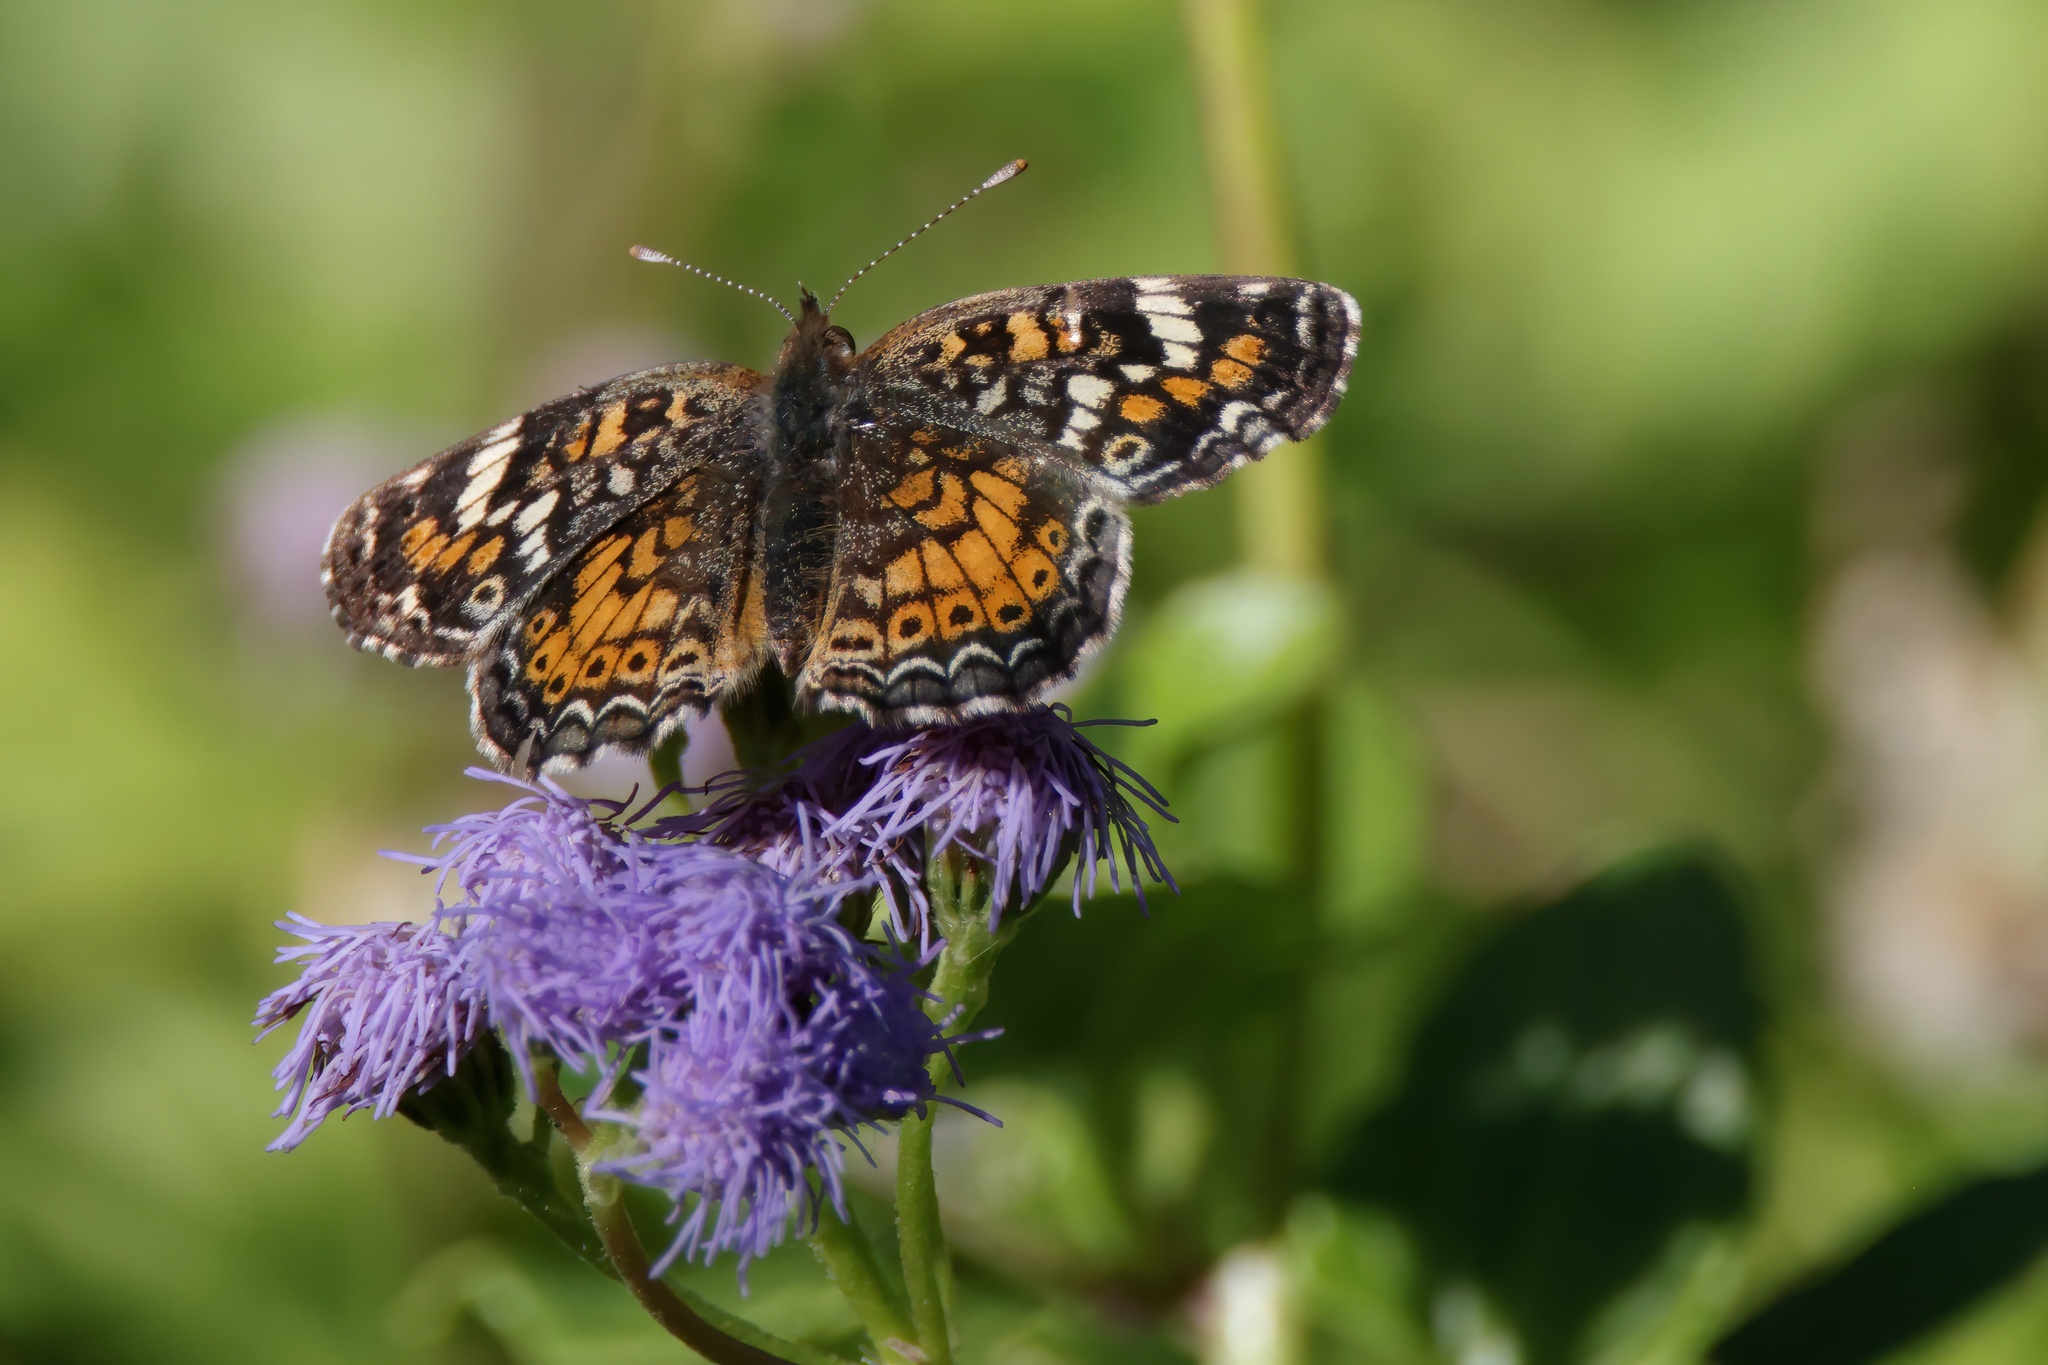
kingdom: Animalia
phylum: Arthropoda
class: Insecta
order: Lepidoptera
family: Nymphalidae
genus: Phyciodes
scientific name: Phyciodes phaon
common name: Phaon crescent
